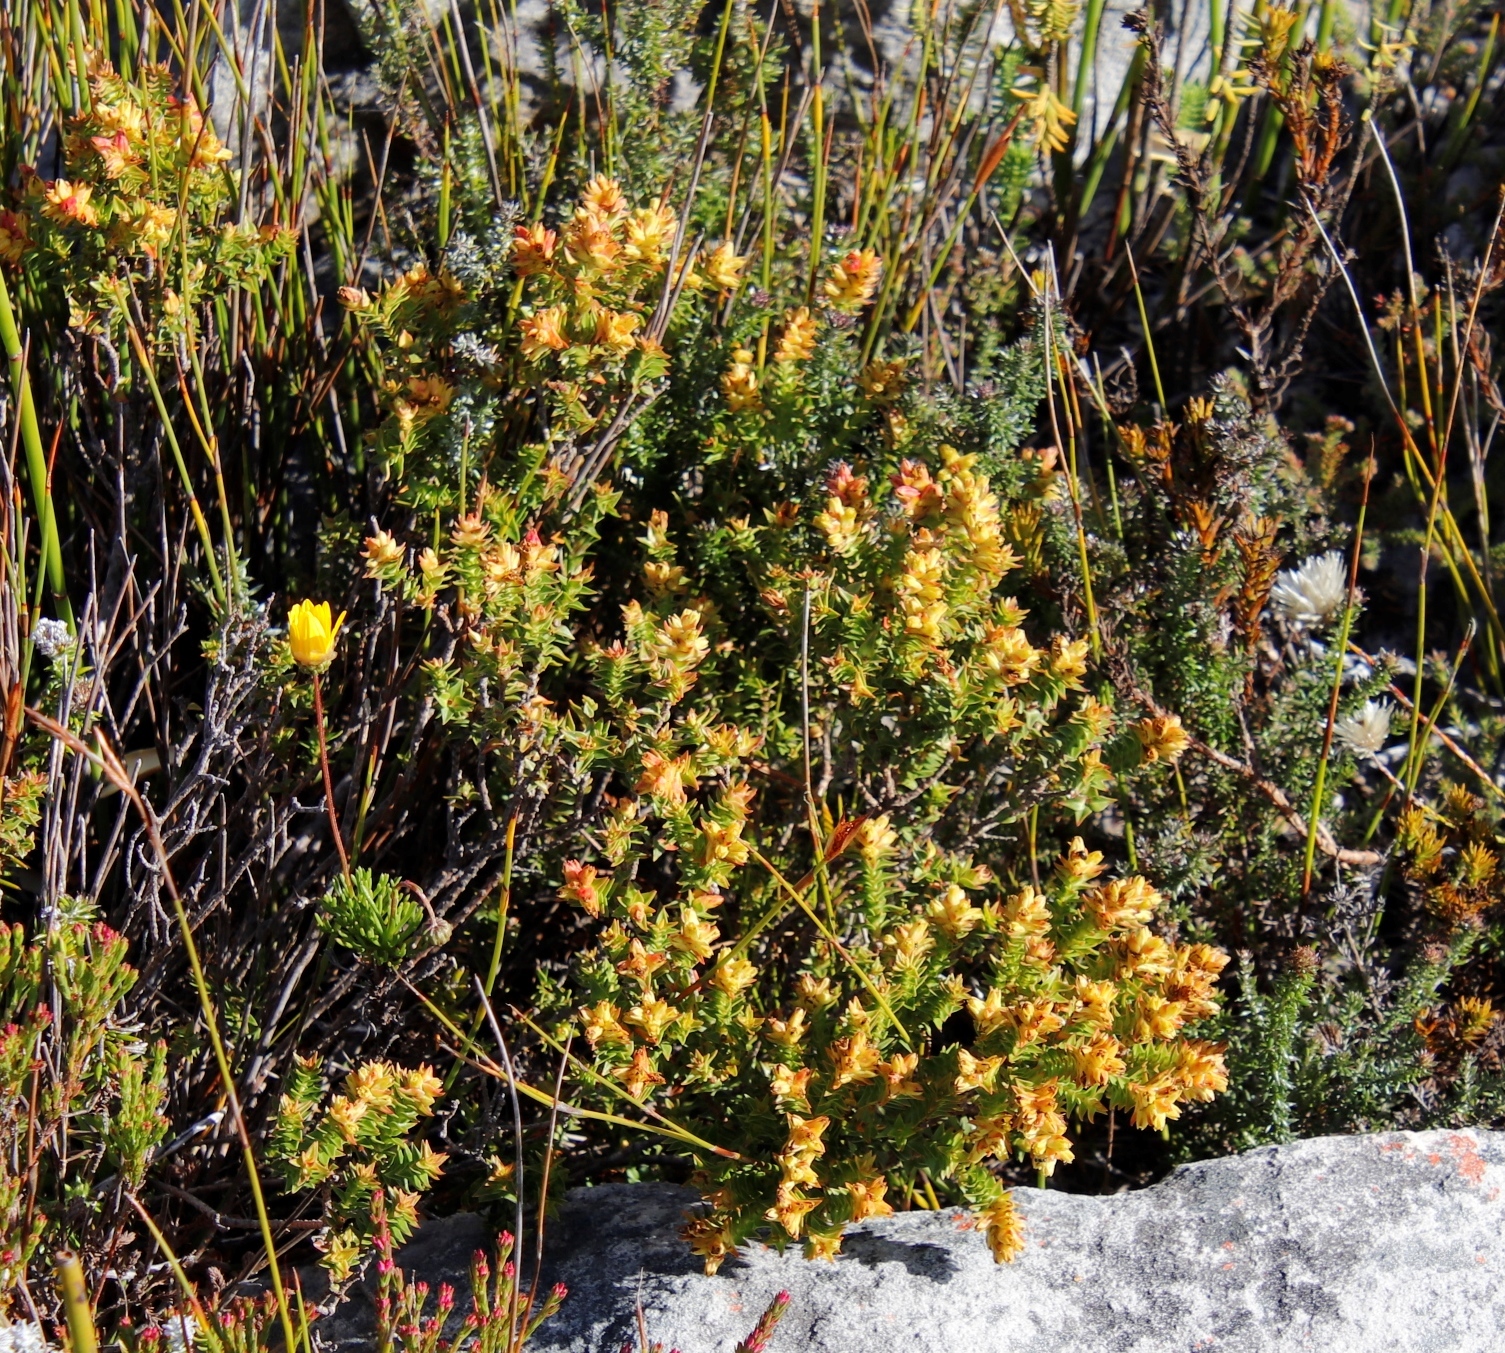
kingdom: Plantae
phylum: Tracheophyta
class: Magnoliopsida
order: Myrtales
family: Penaeaceae
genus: Penaea
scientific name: Penaea mucronata
